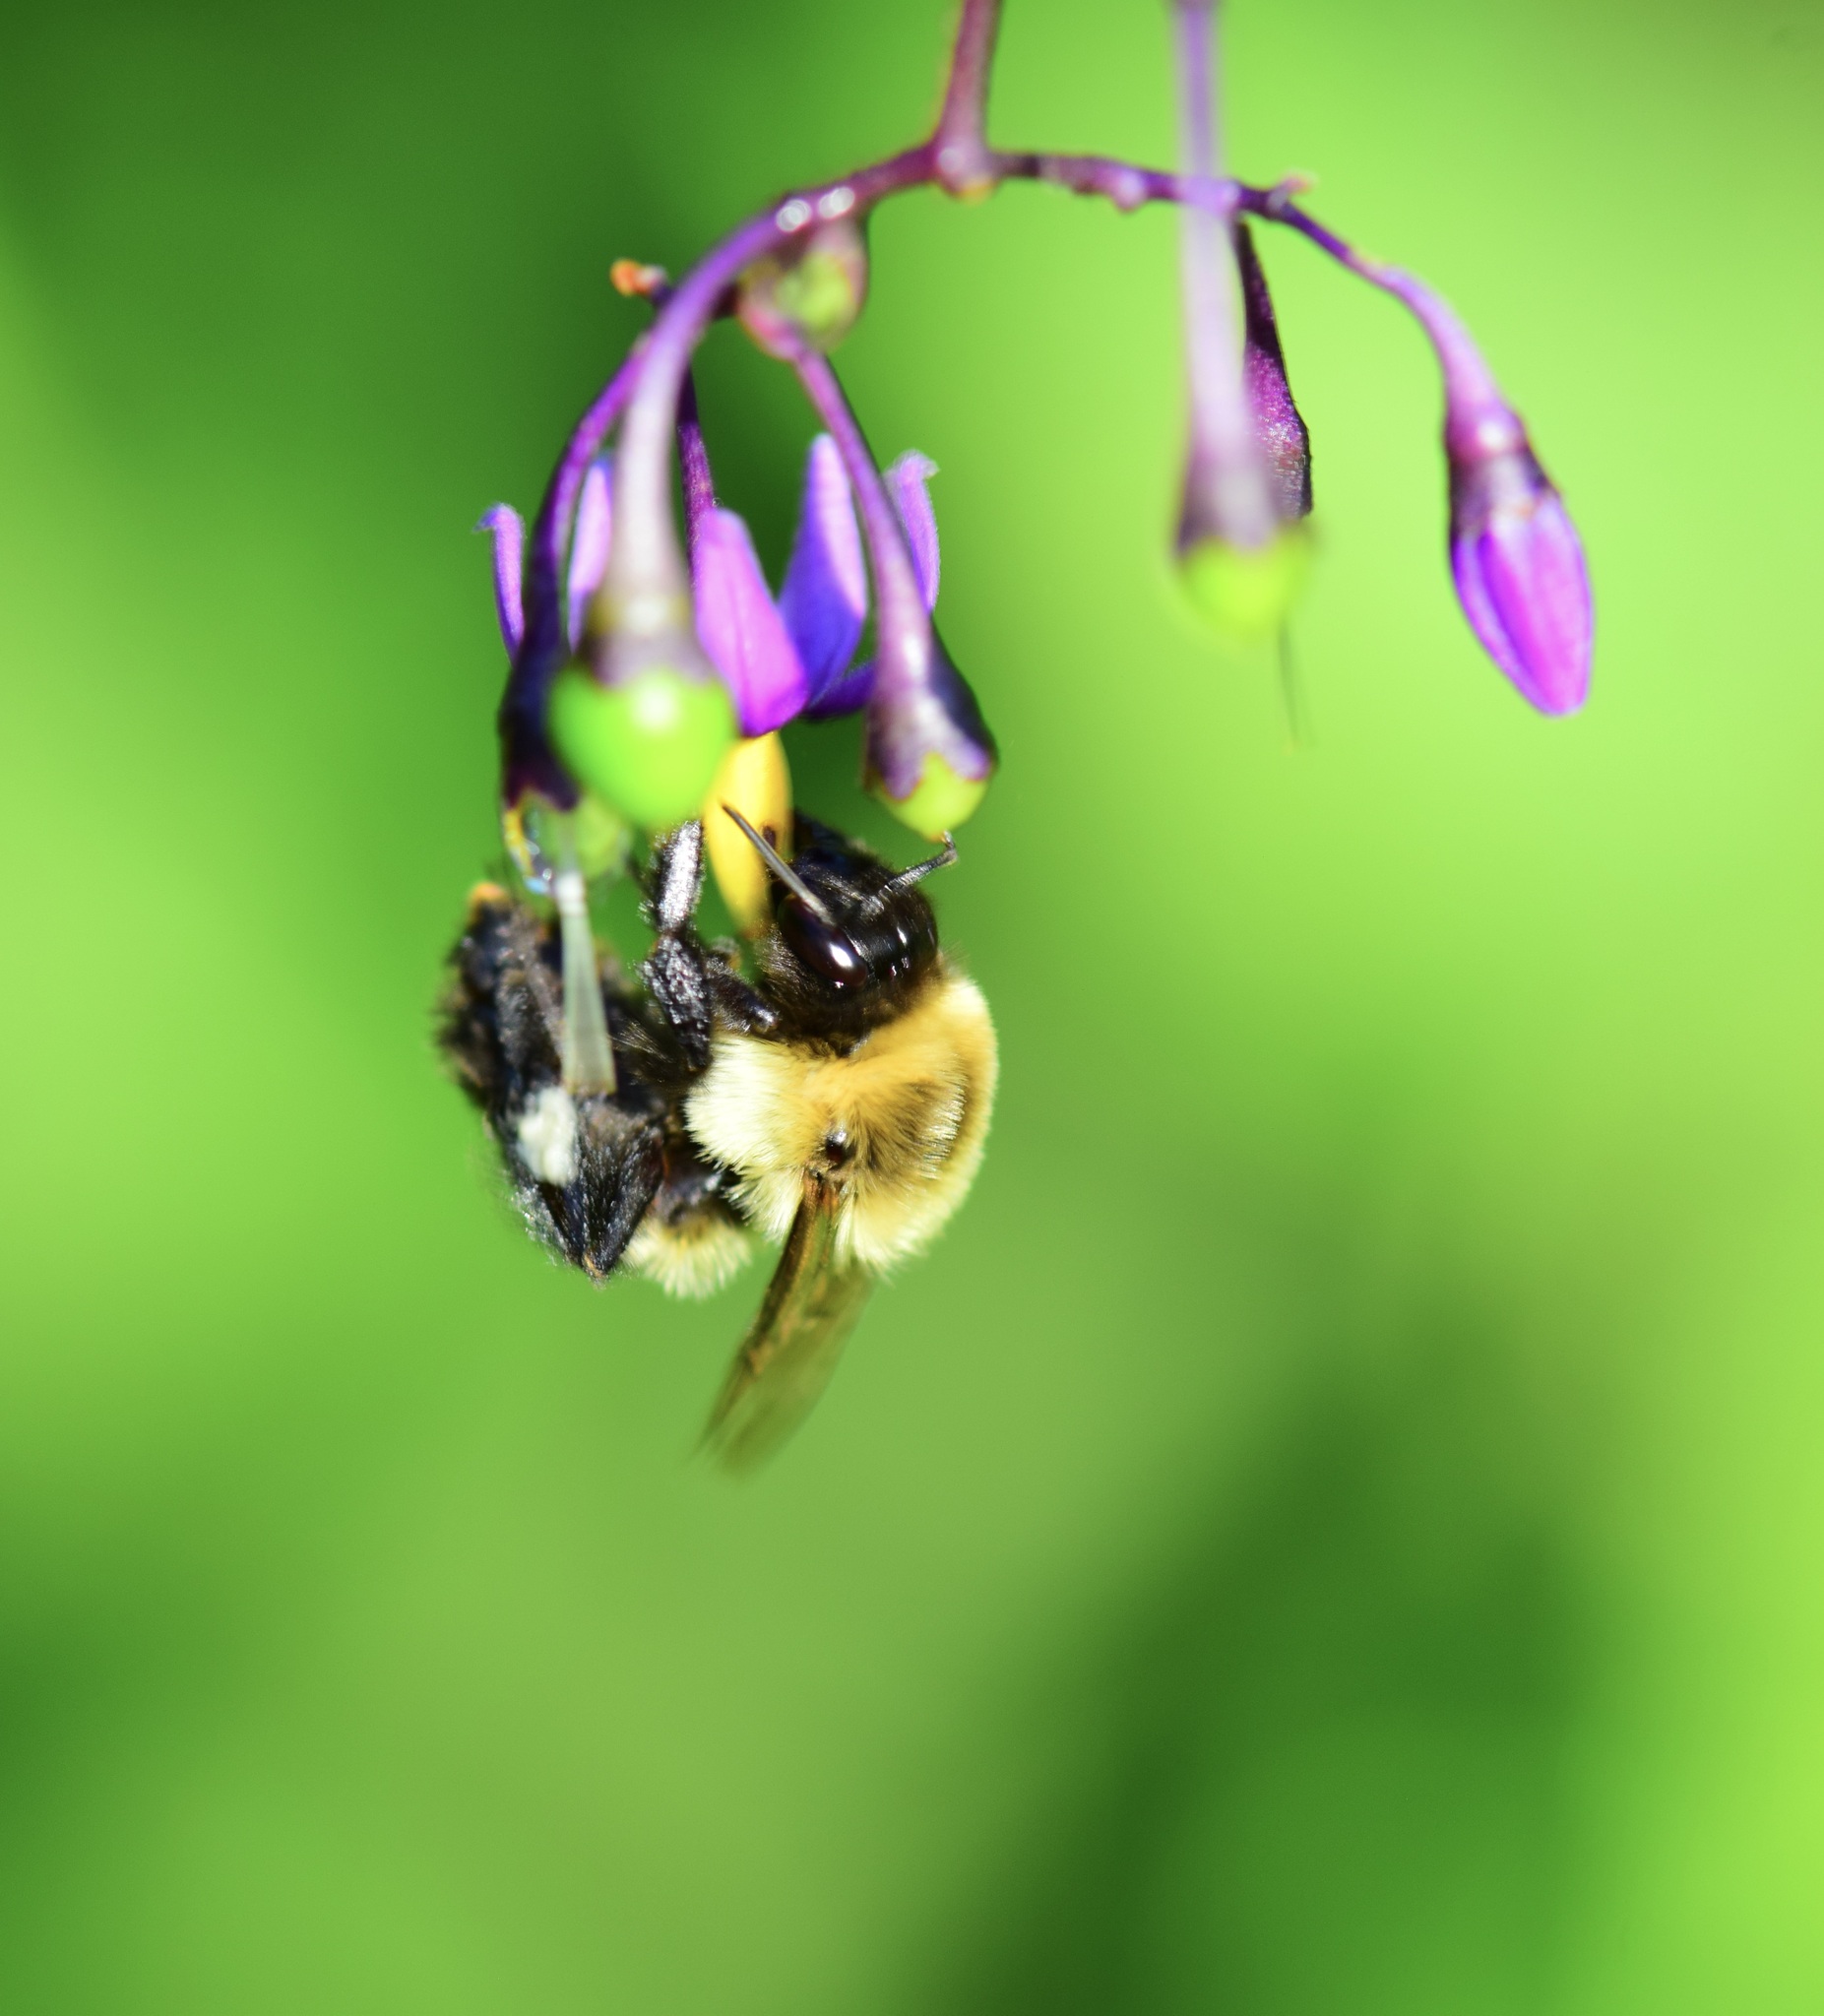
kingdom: Animalia
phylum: Arthropoda
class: Insecta
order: Hymenoptera
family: Apidae
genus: Bombus
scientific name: Bombus impatiens
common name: Common eastern bumble bee
